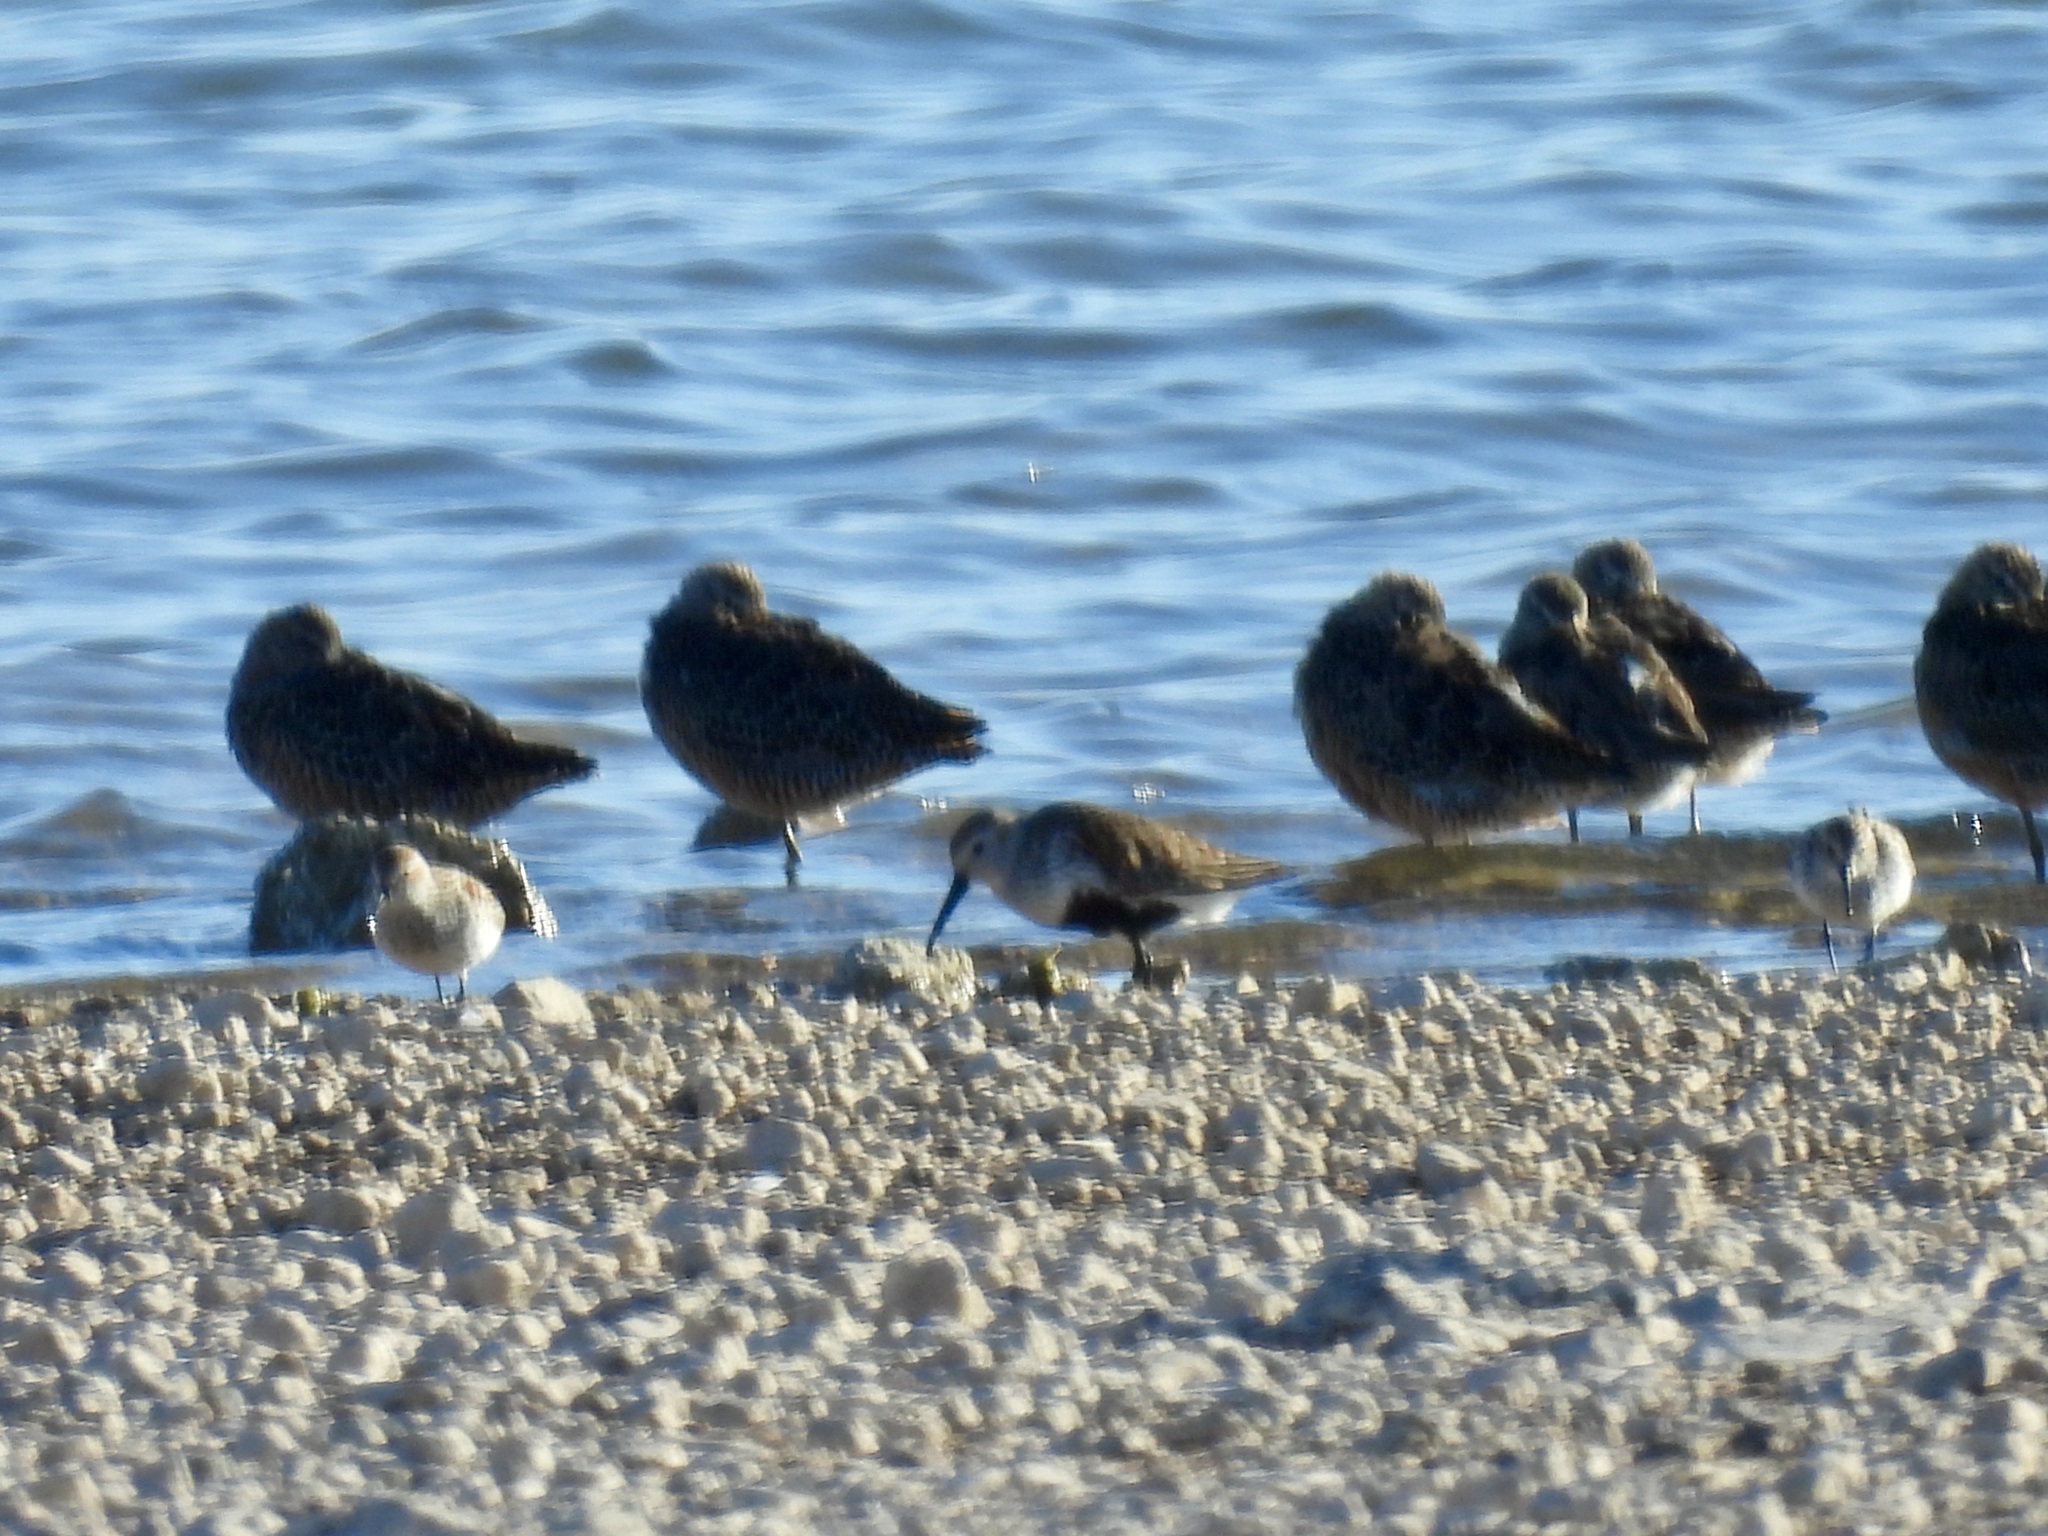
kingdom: Animalia
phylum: Chordata
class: Aves
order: Charadriiformes
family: Scolopacidae
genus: Calidris
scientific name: Calidris alpina
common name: Dunlin
